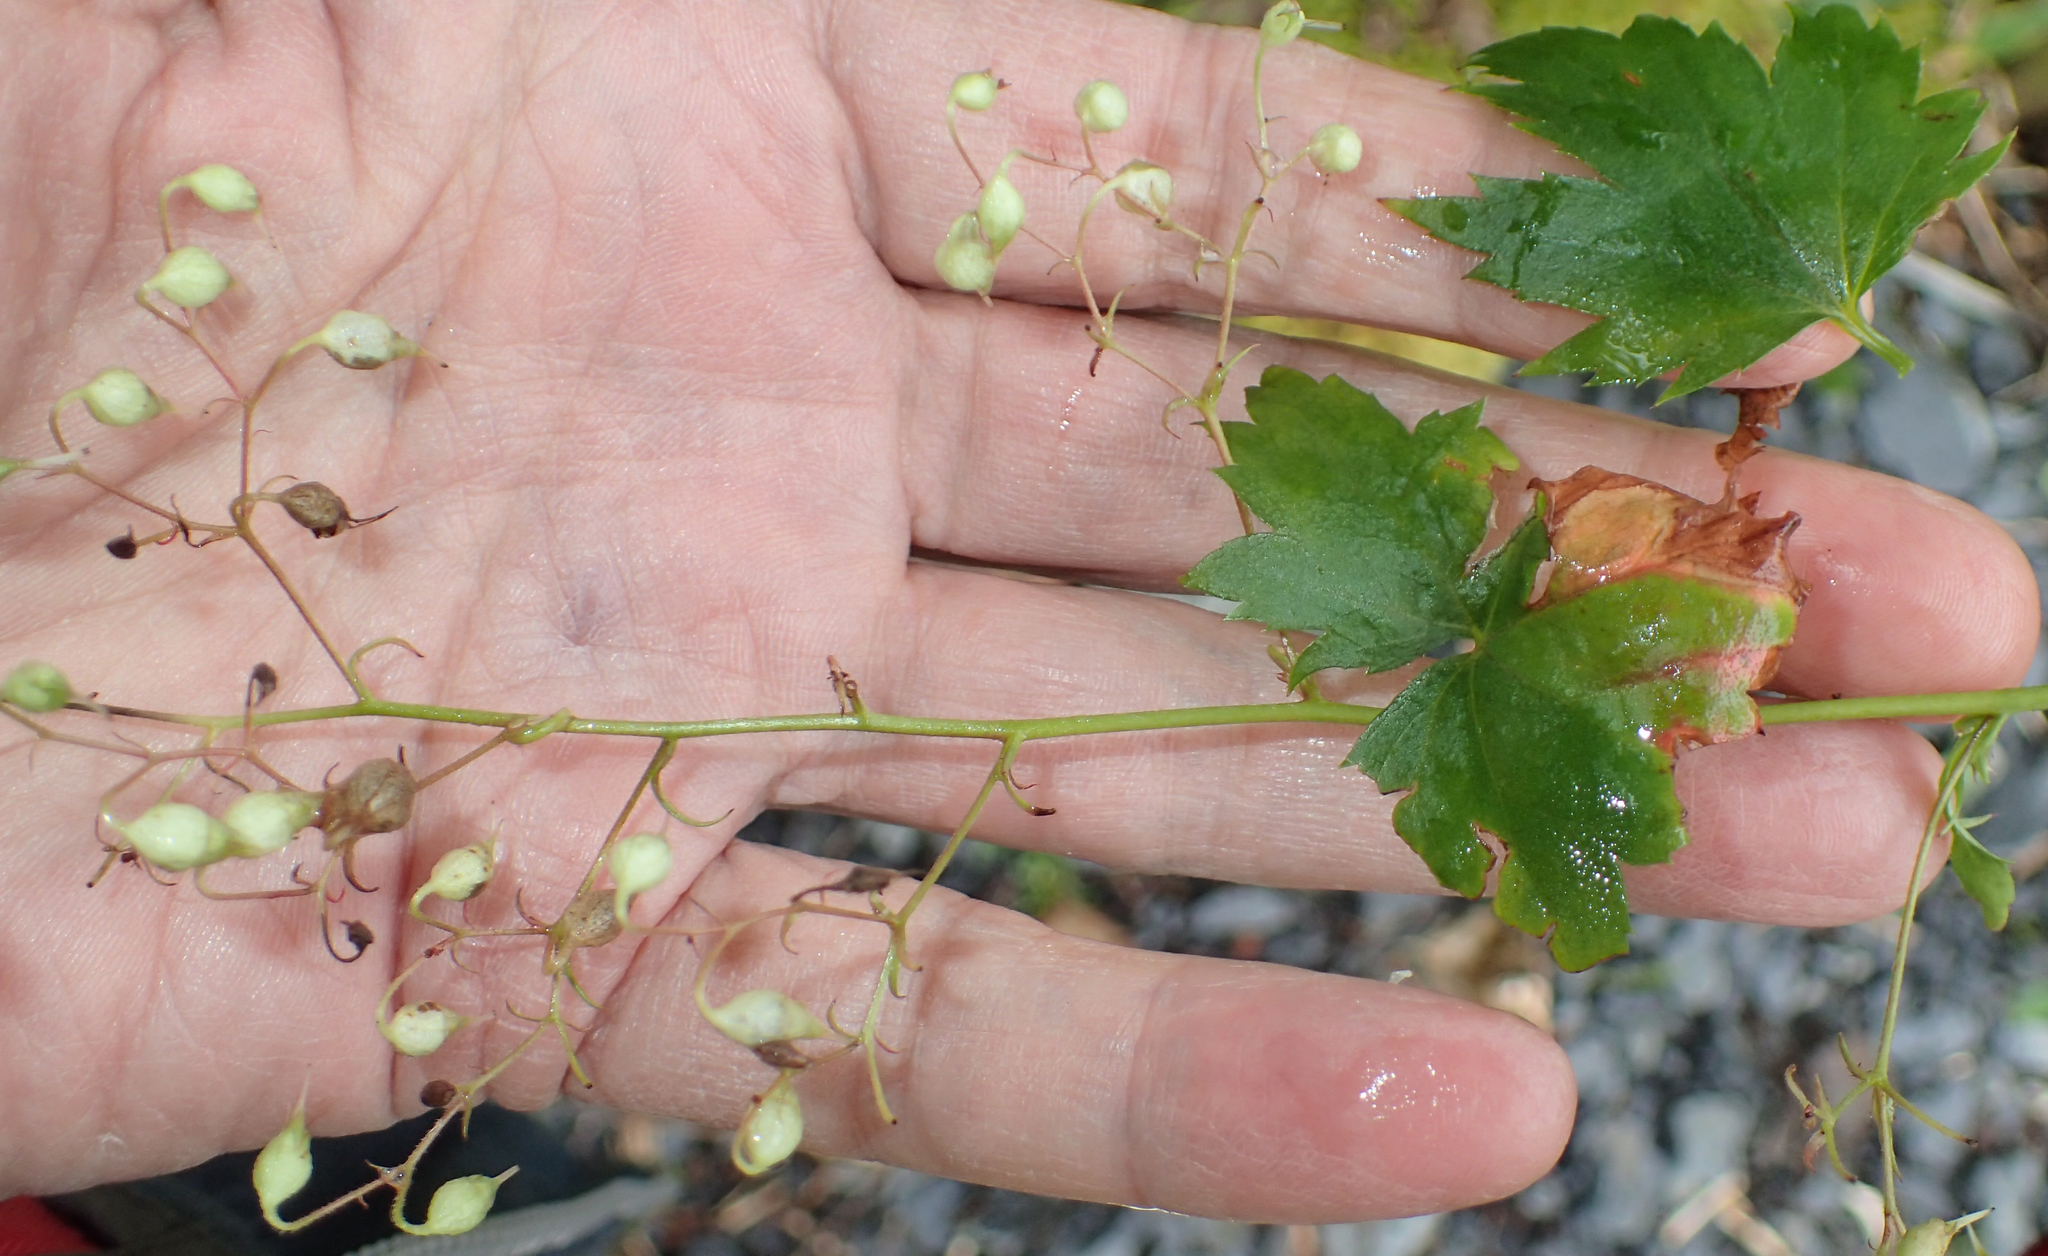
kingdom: Plantae
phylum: Tracheophyta
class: Magnoliopsida
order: Apiales
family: Apiaceae
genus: Ligusticum
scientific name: Ligusticum scothicum
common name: Beach lovage
